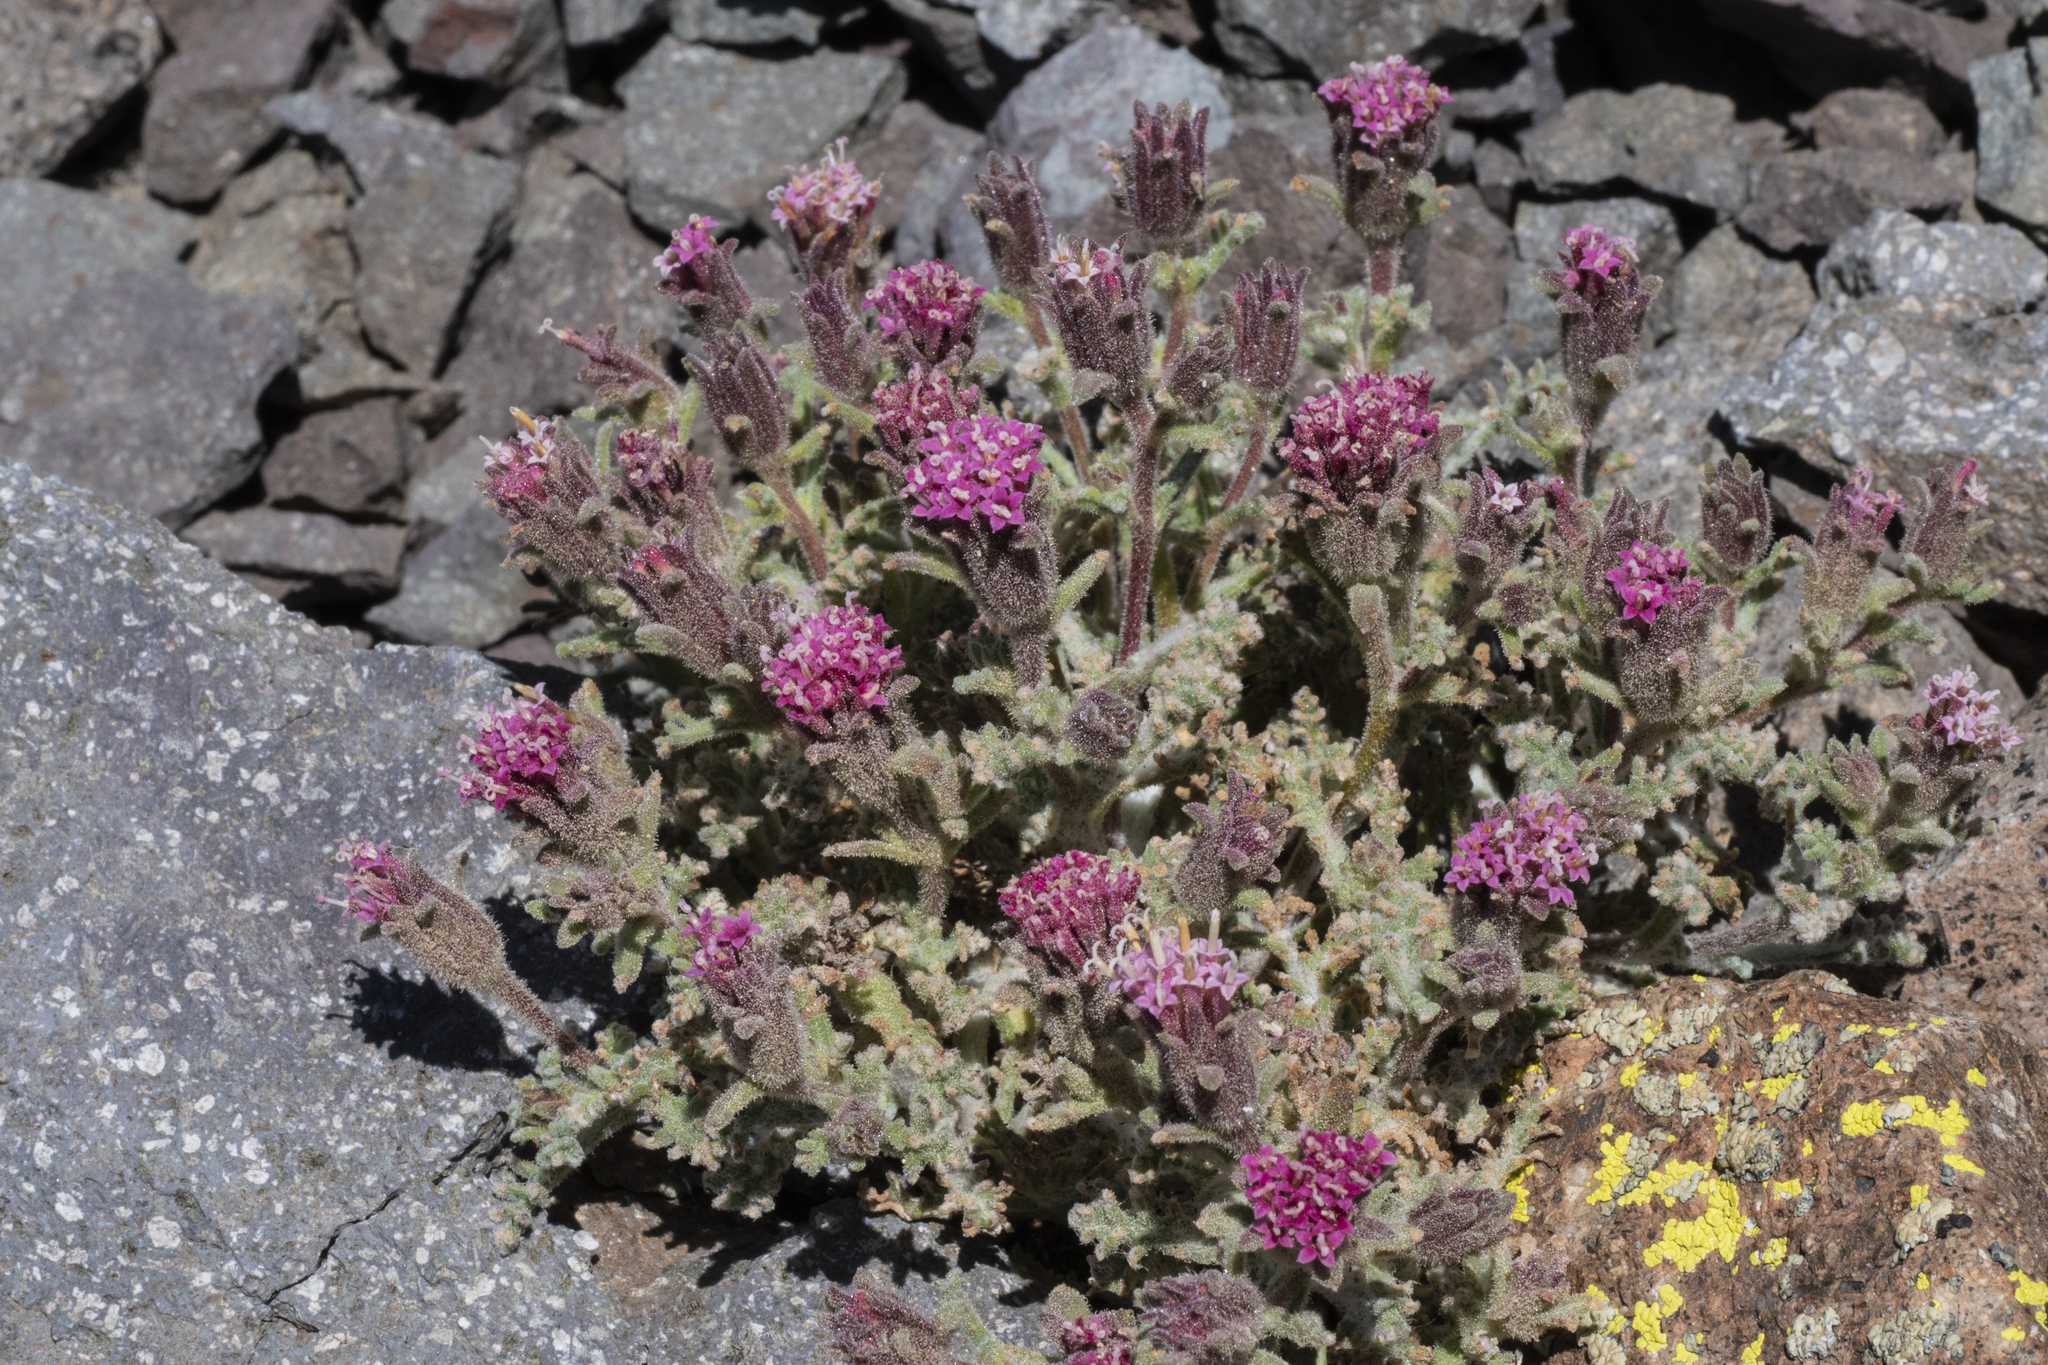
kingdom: Plantae
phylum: Tracheophyta
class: Magnoliopsida
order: Asterales
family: Asteraceae
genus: Chaenactis
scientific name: Chaenactis douglasii
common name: Hoary pincushion
